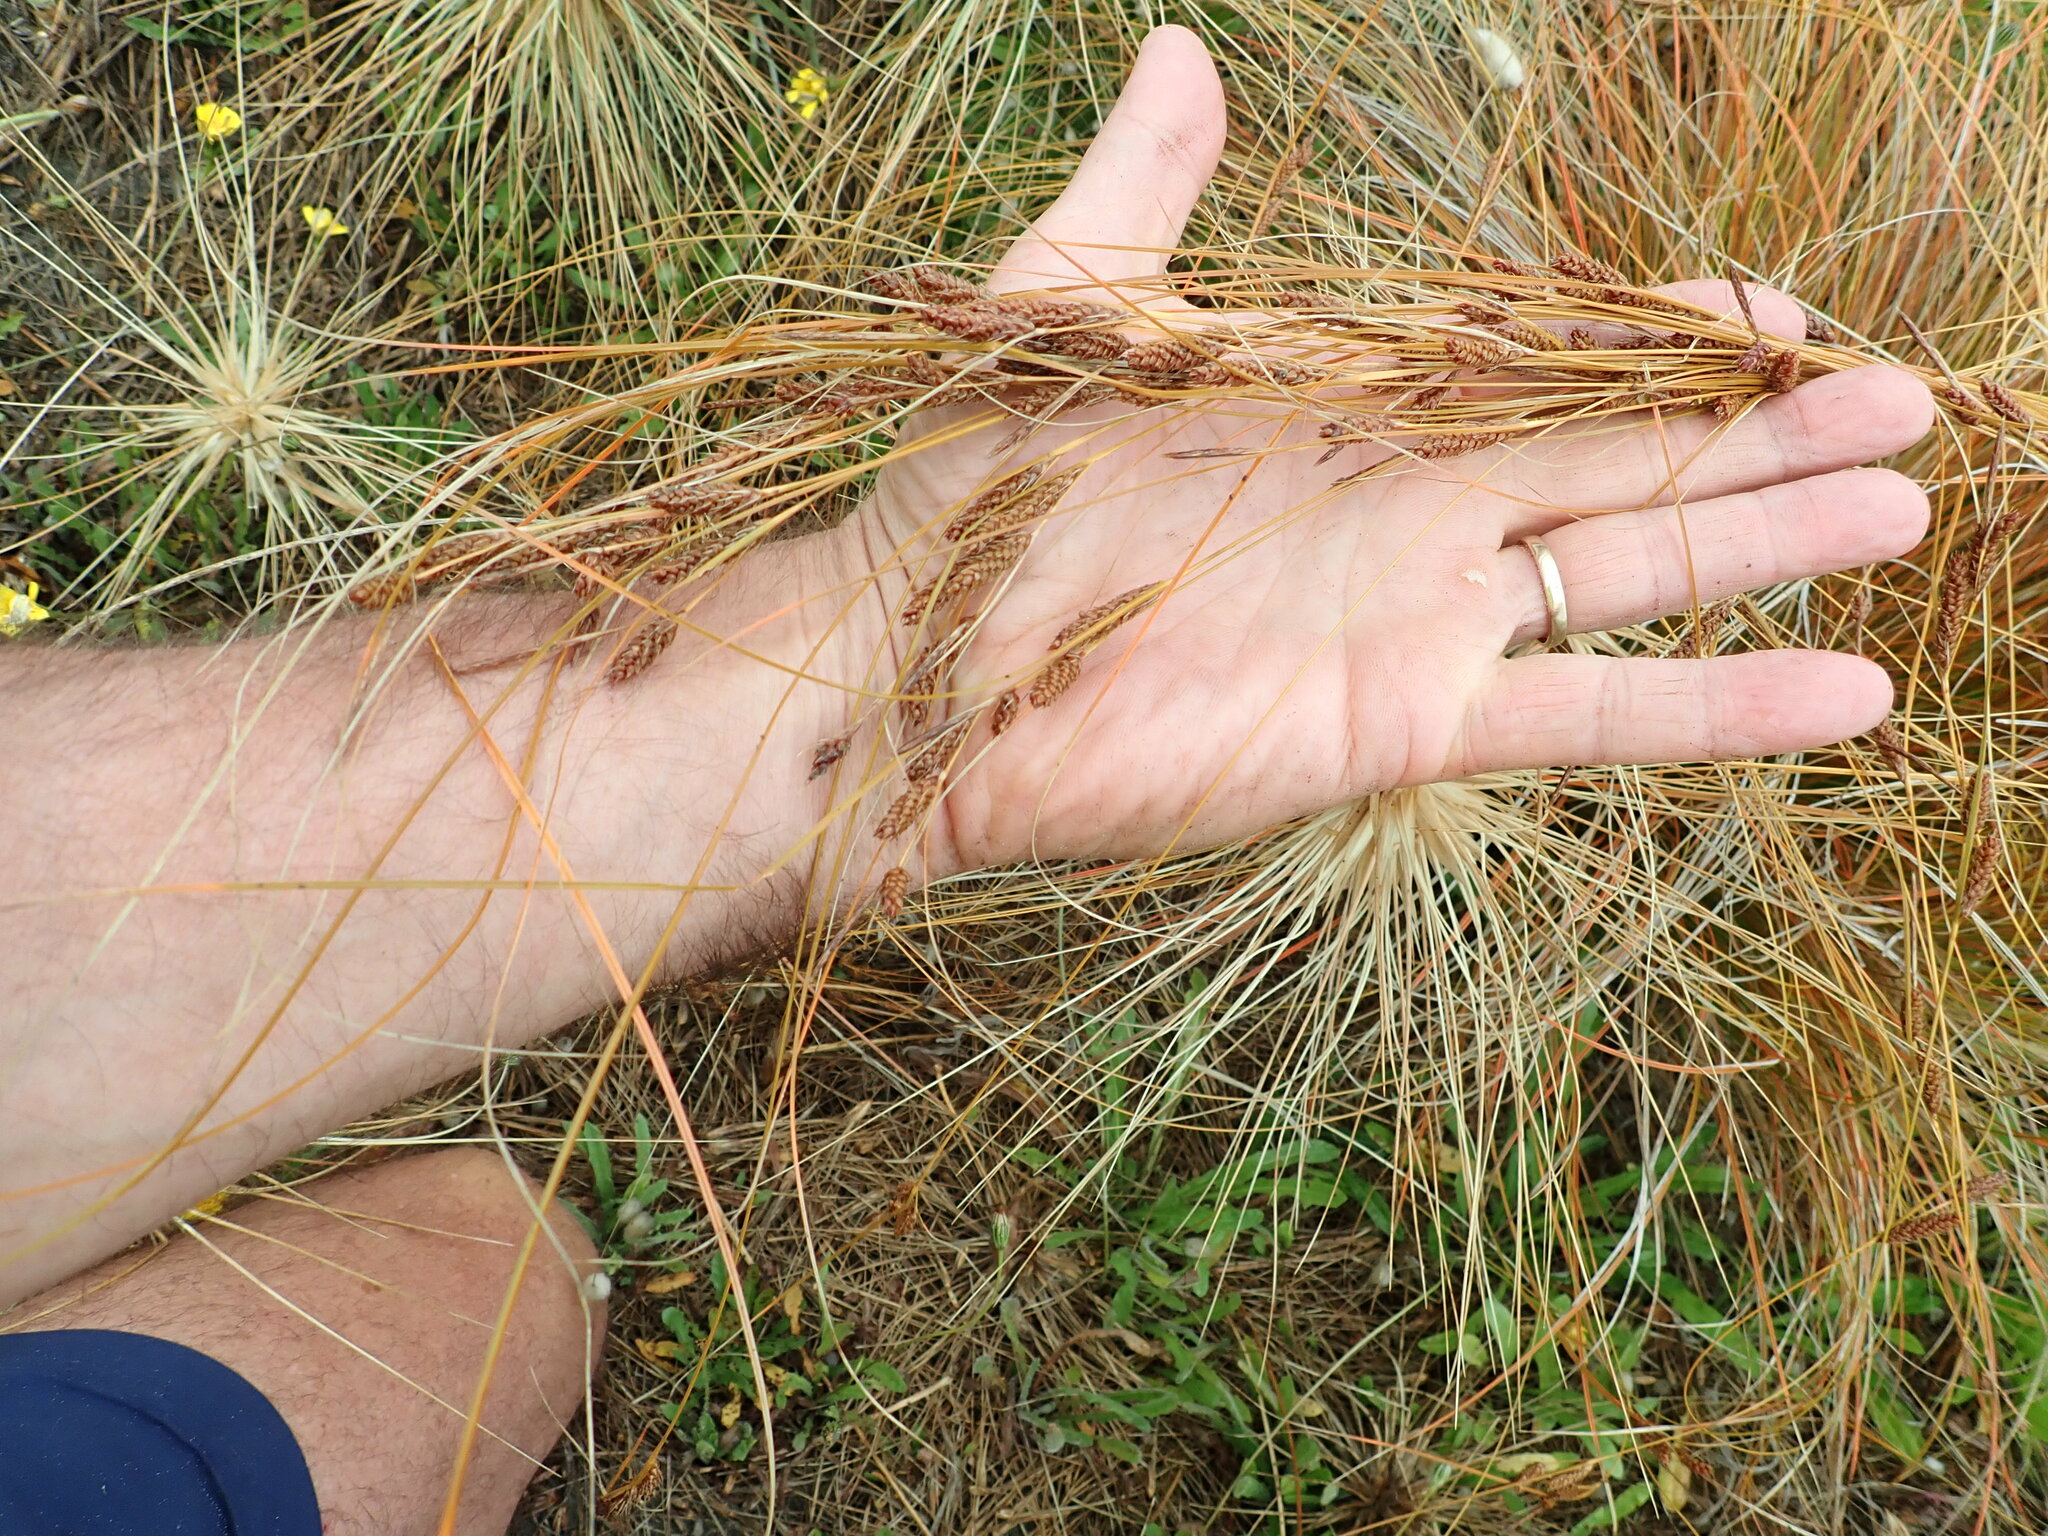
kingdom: Plantae
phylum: Tracheophyta
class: Liliopsida
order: Poales
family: Cyperaceae
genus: Carex
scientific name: Carex testacea
